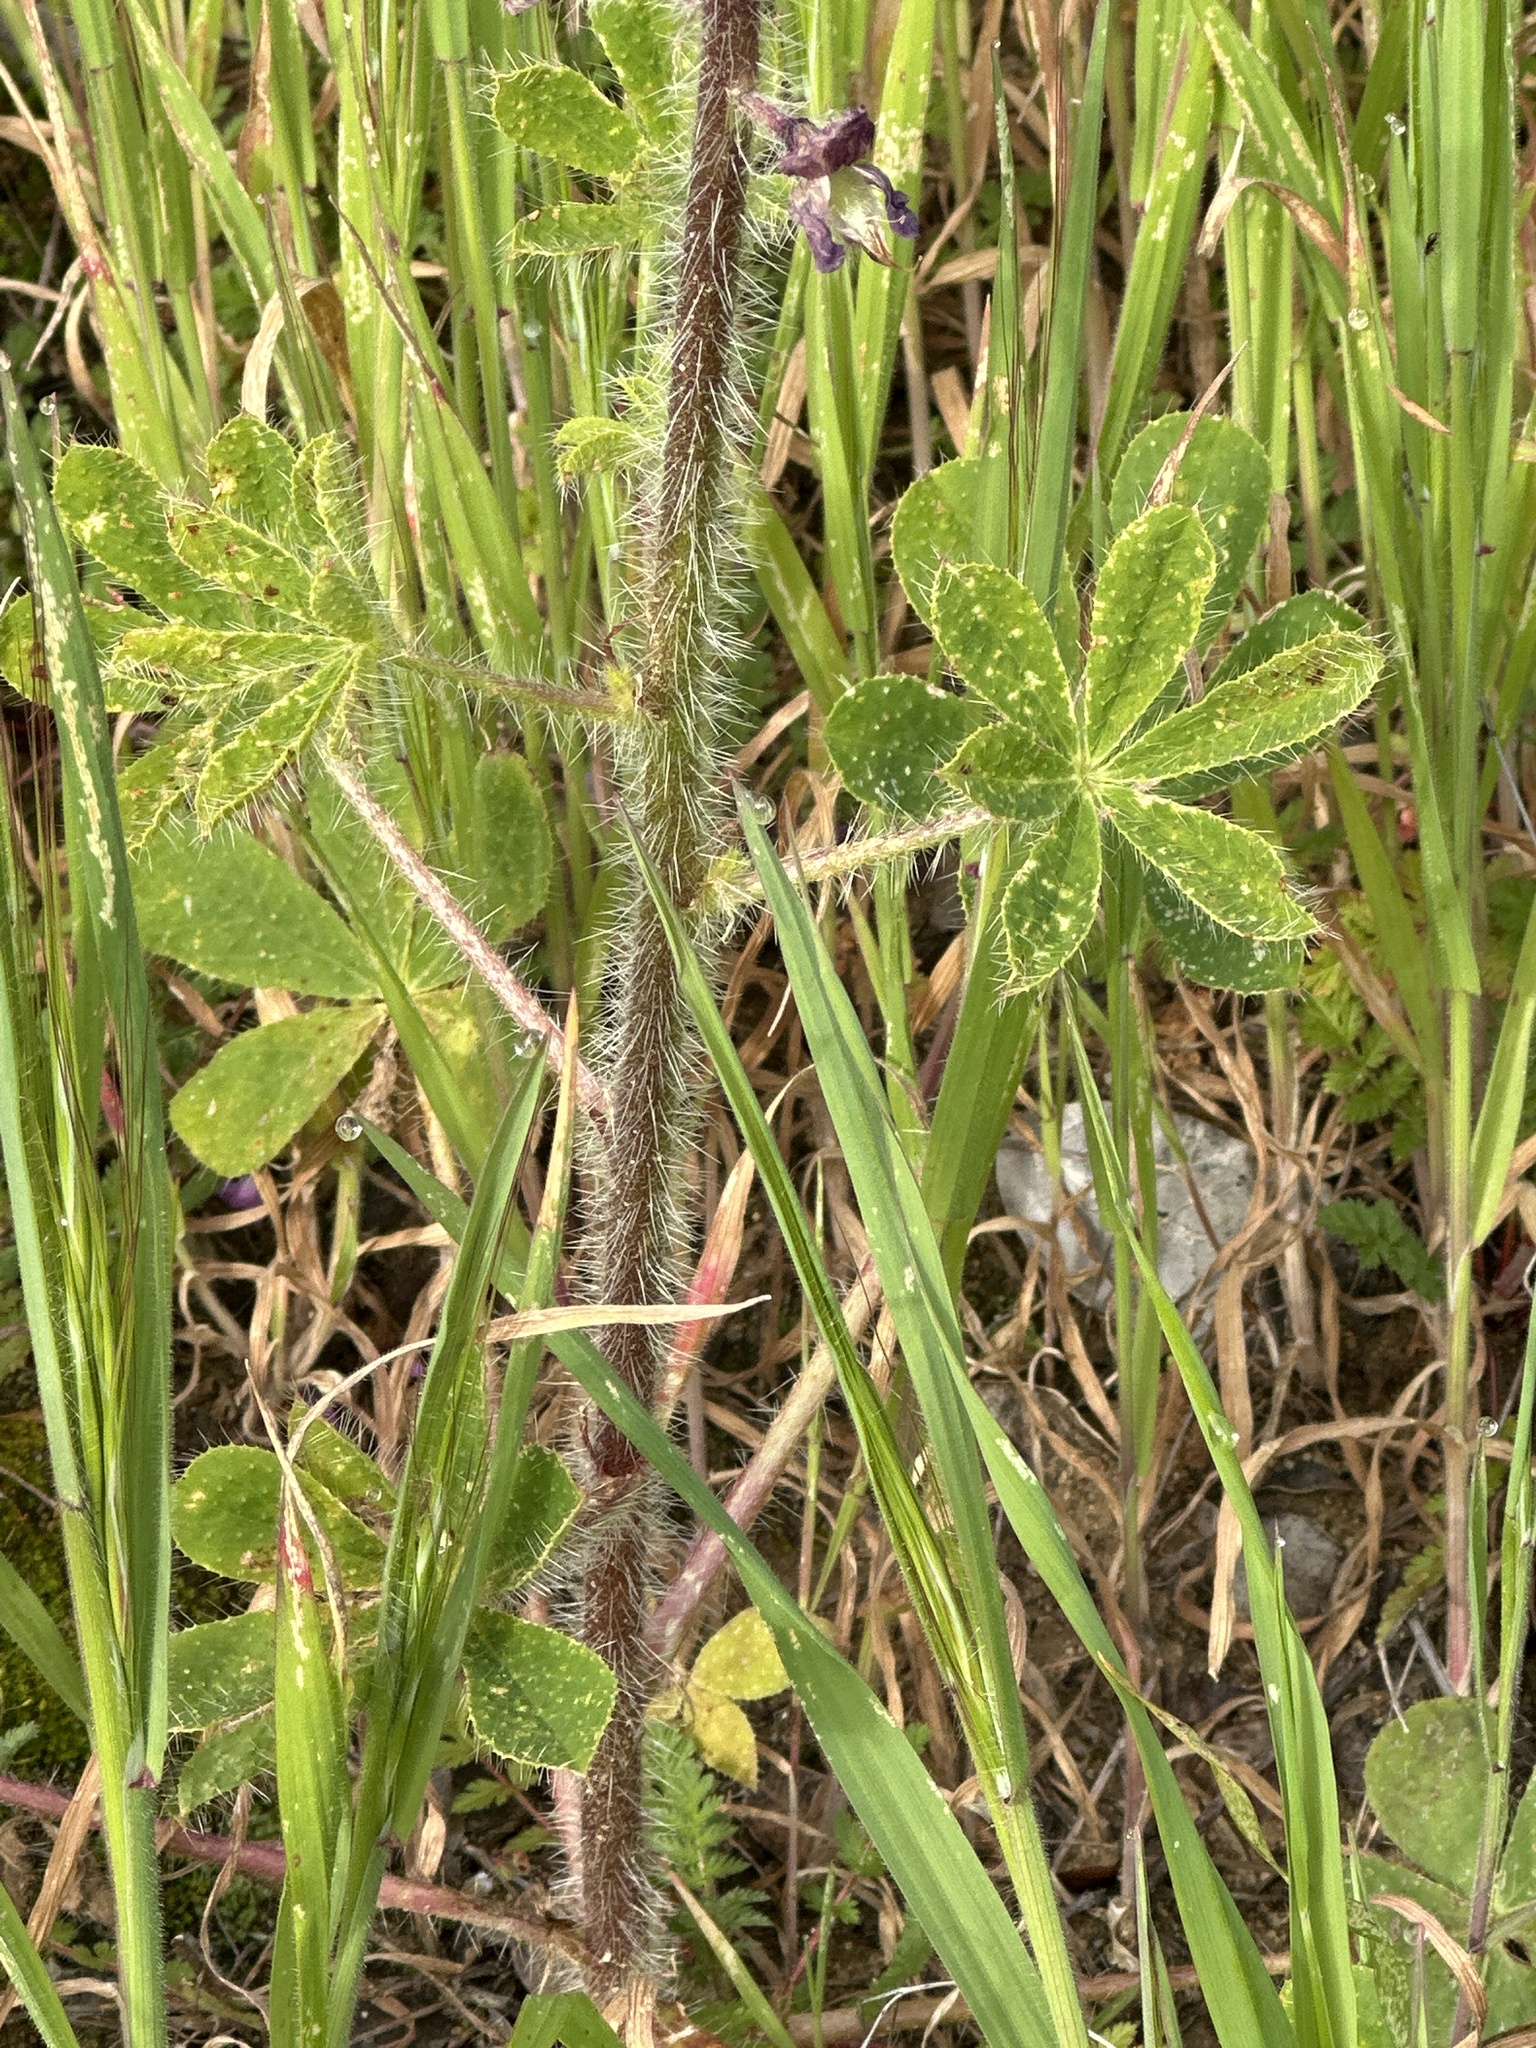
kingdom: Plantae
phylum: Tracheophyta
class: Magnoliopsida
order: Fabales
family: Fabaceae
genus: Lupinus
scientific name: Lupinus hirsutissimus
